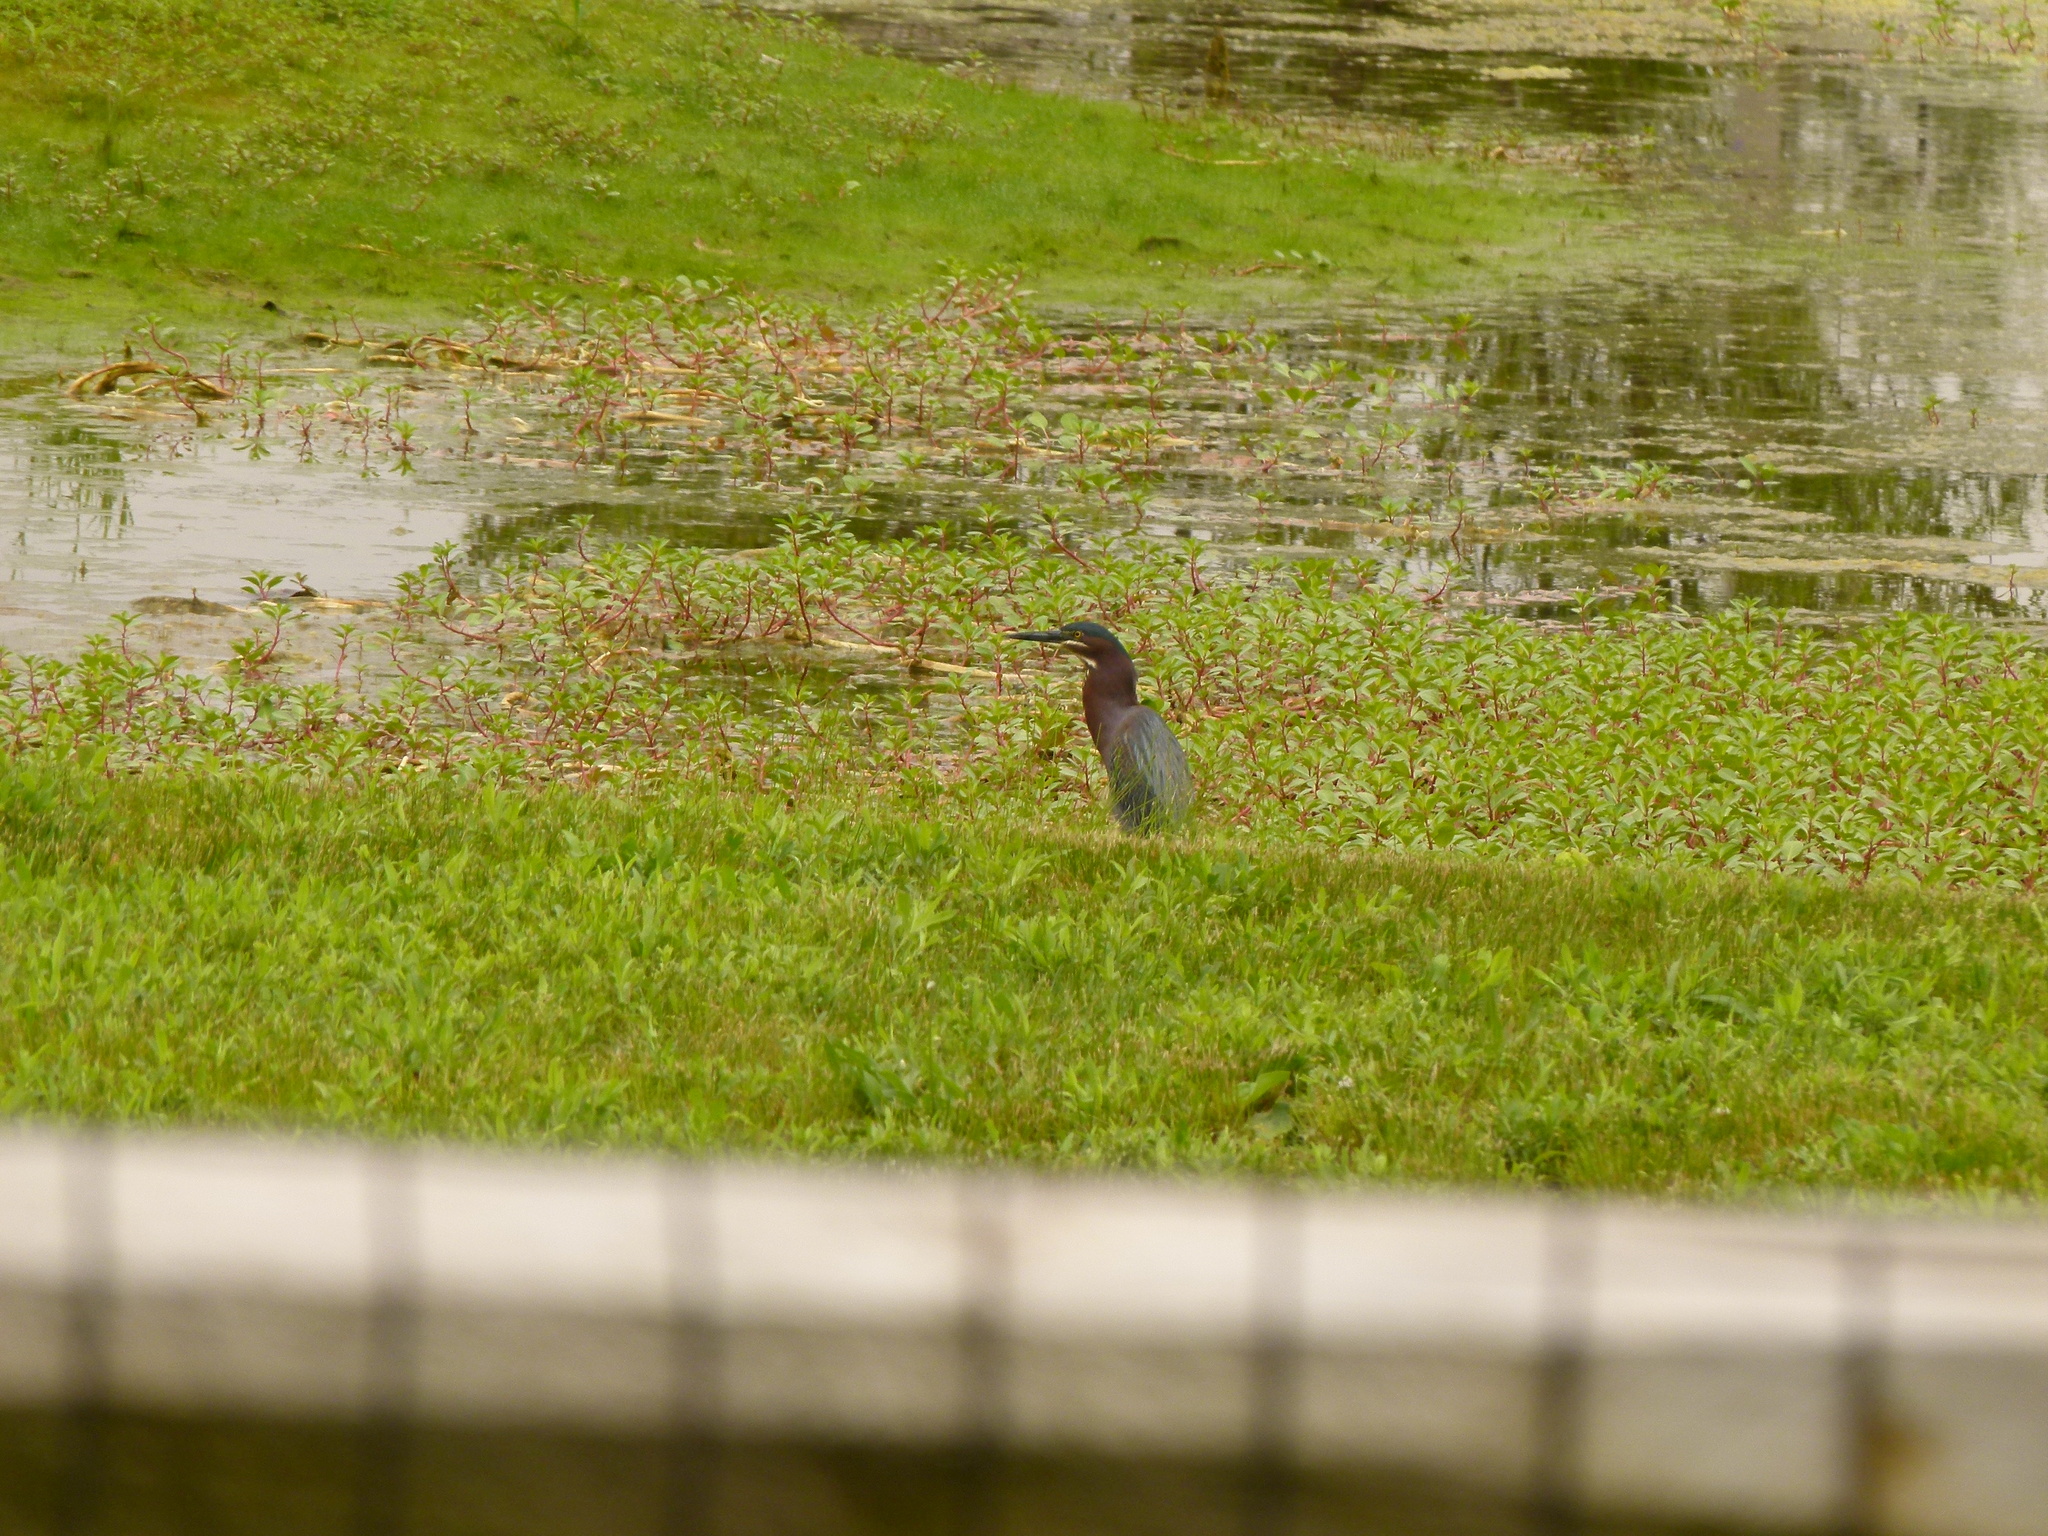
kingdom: Animalia
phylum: Chordata
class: Aves
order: Pelecaniformes
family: Ardeidae
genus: Butorides
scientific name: Butorides virescens
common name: Green heron
